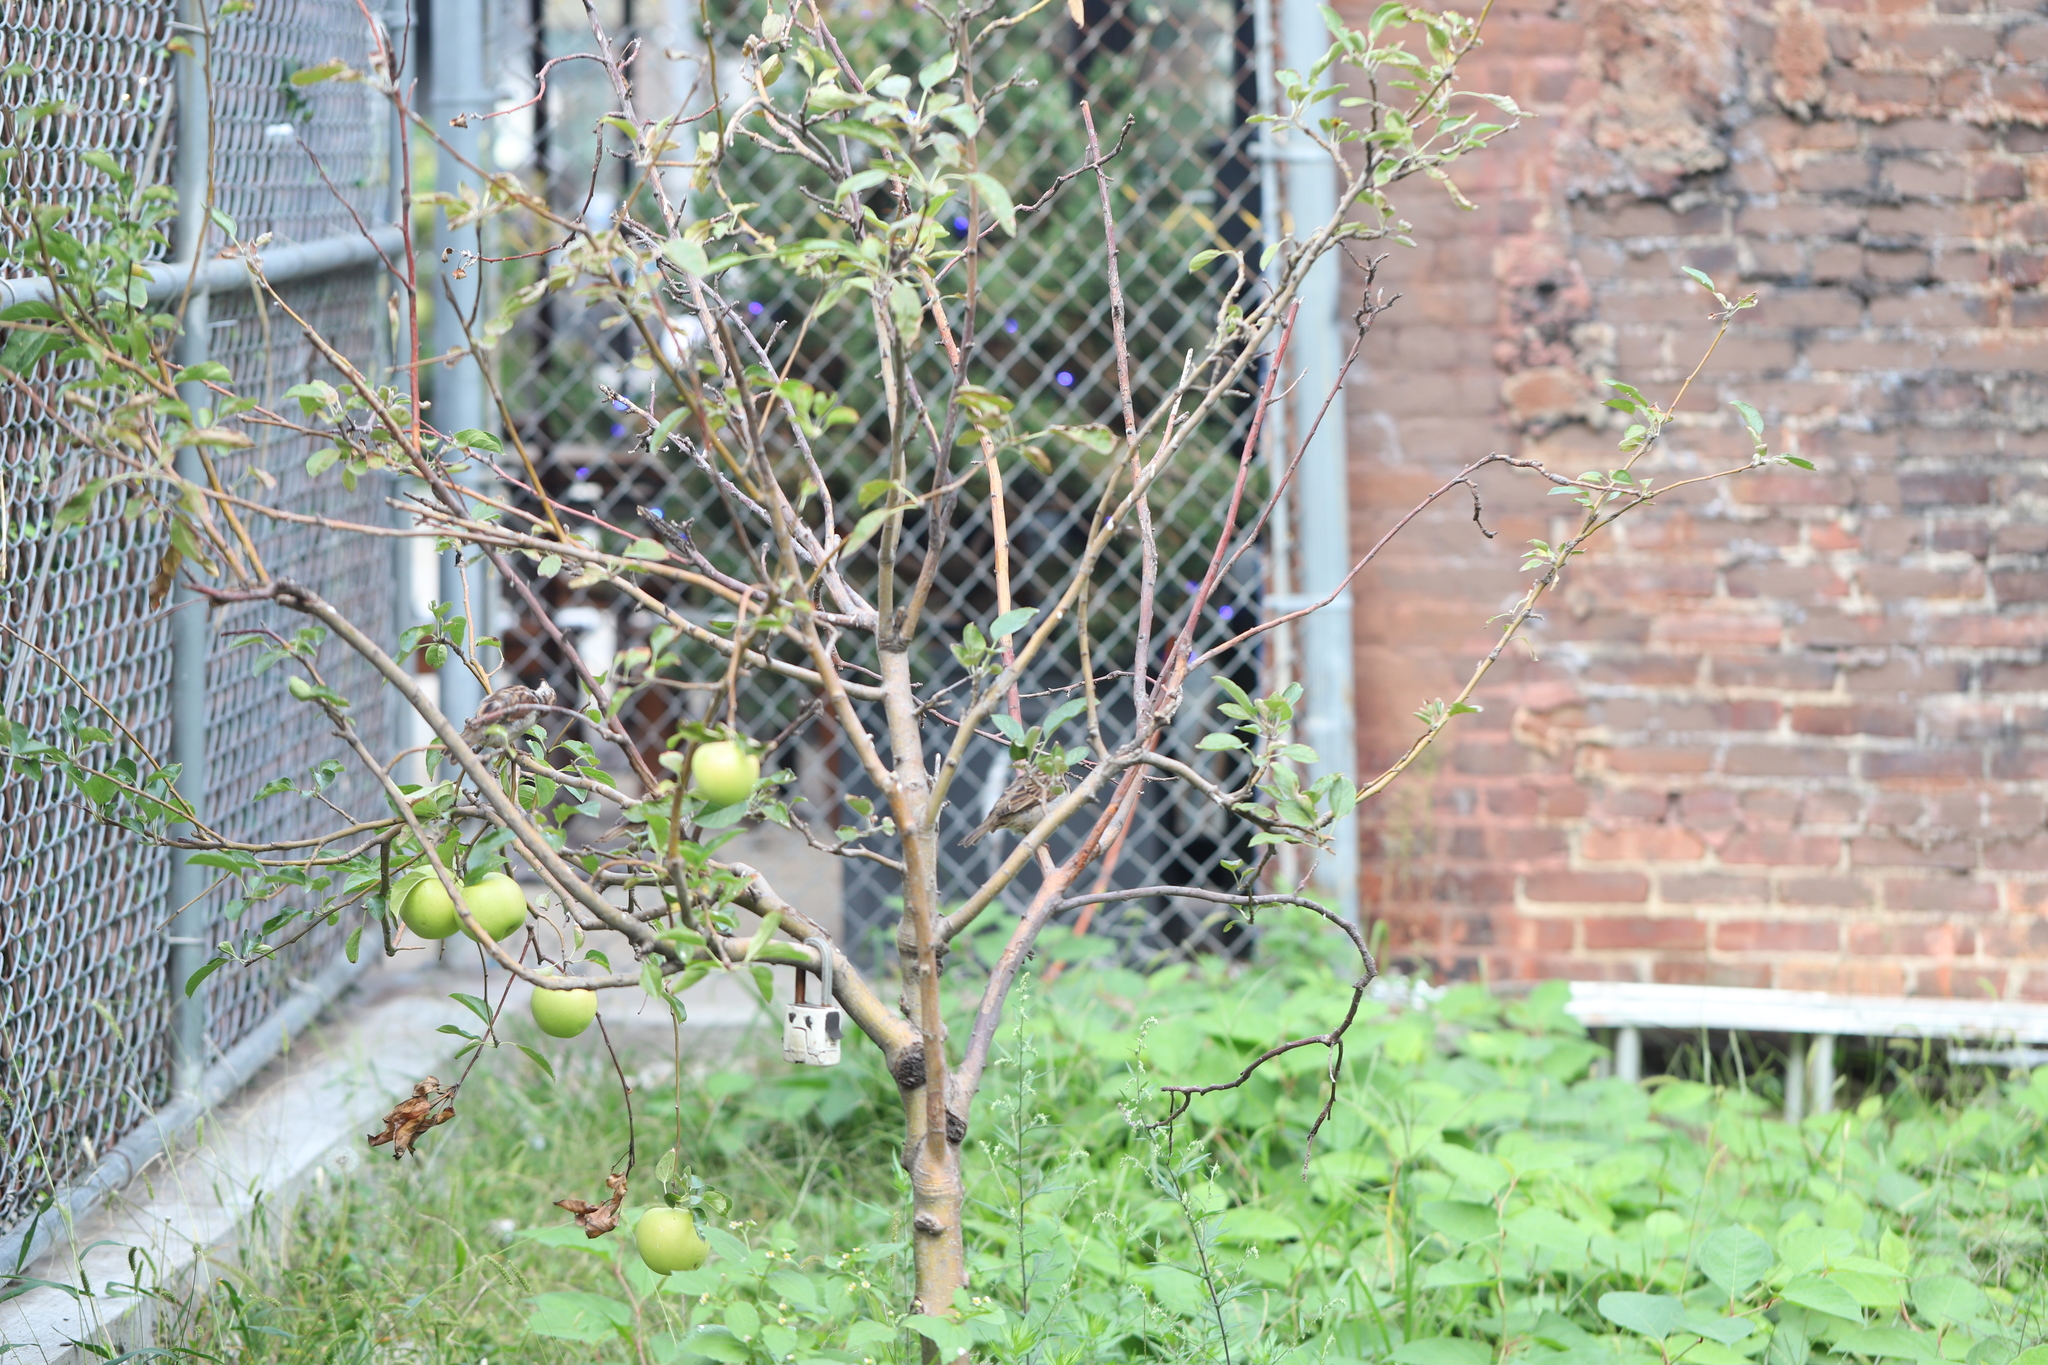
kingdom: Plantae
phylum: Tracheophyta
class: Magnoliopsida
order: Rosales
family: Rosaceae
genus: Malus
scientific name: Malus domestica
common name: Apple
